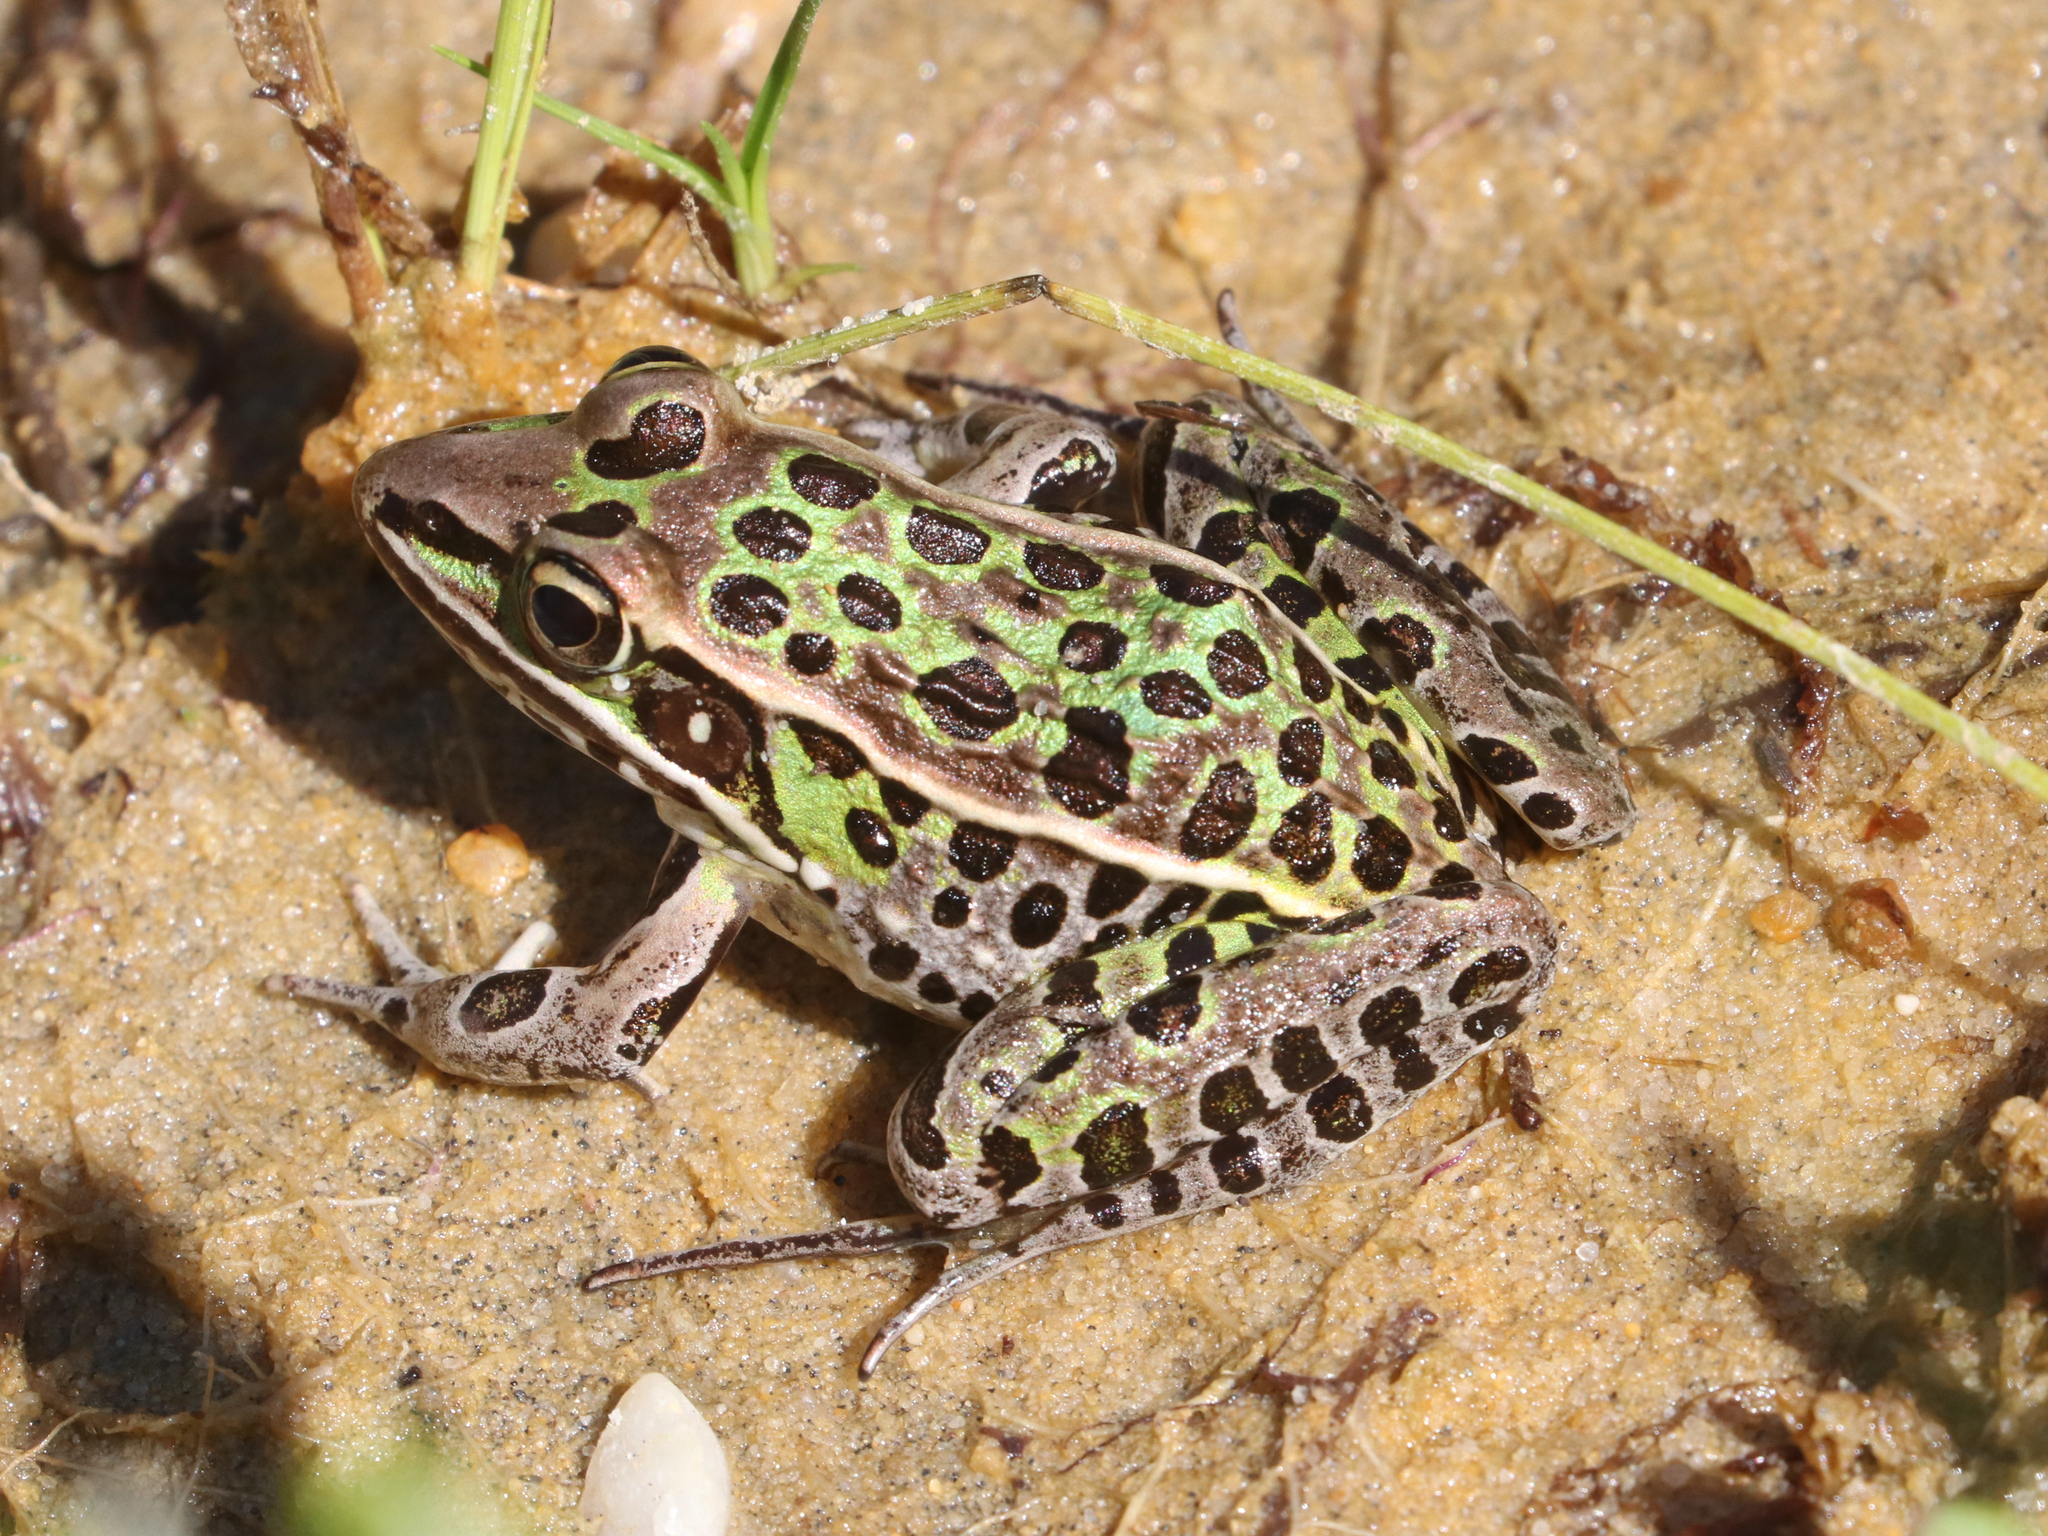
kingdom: Animalia
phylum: Chordata
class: Amphibia
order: Anura
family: Ranidae
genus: Lithobates
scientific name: Lithobates sphenocephalus
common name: Southern leopard frog
